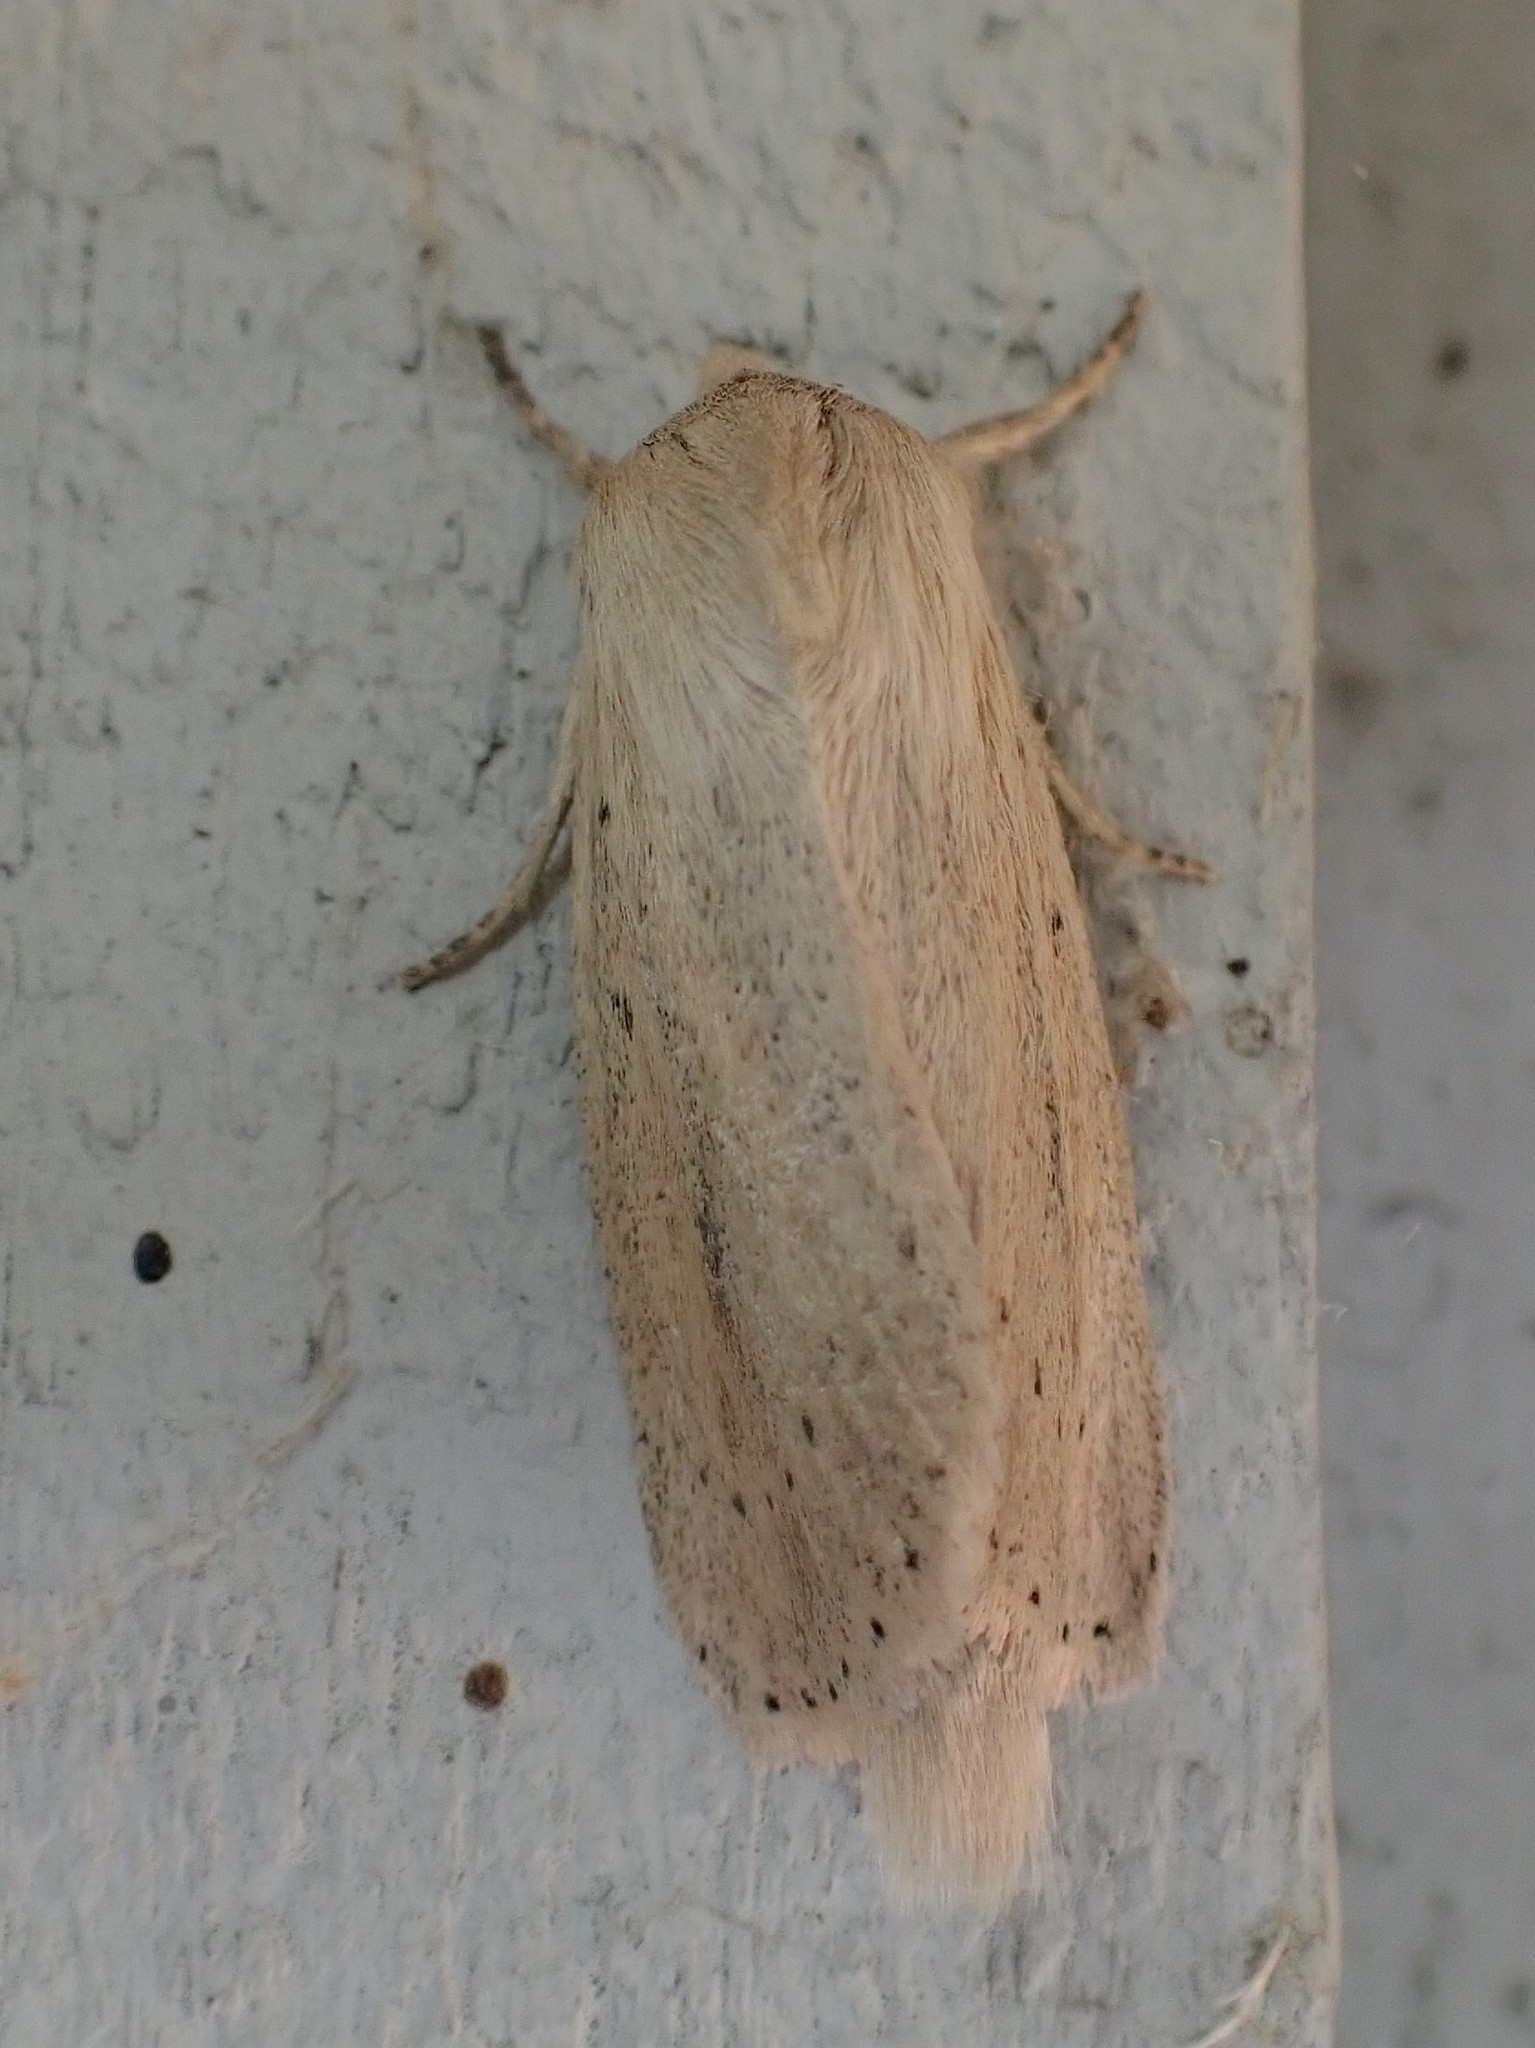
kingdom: Animalia
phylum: Arthropoda
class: Insecta
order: Lepidoptera
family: Noctuidae
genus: Globia
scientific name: Globia oblonga
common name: Oblong sedge borer moth
